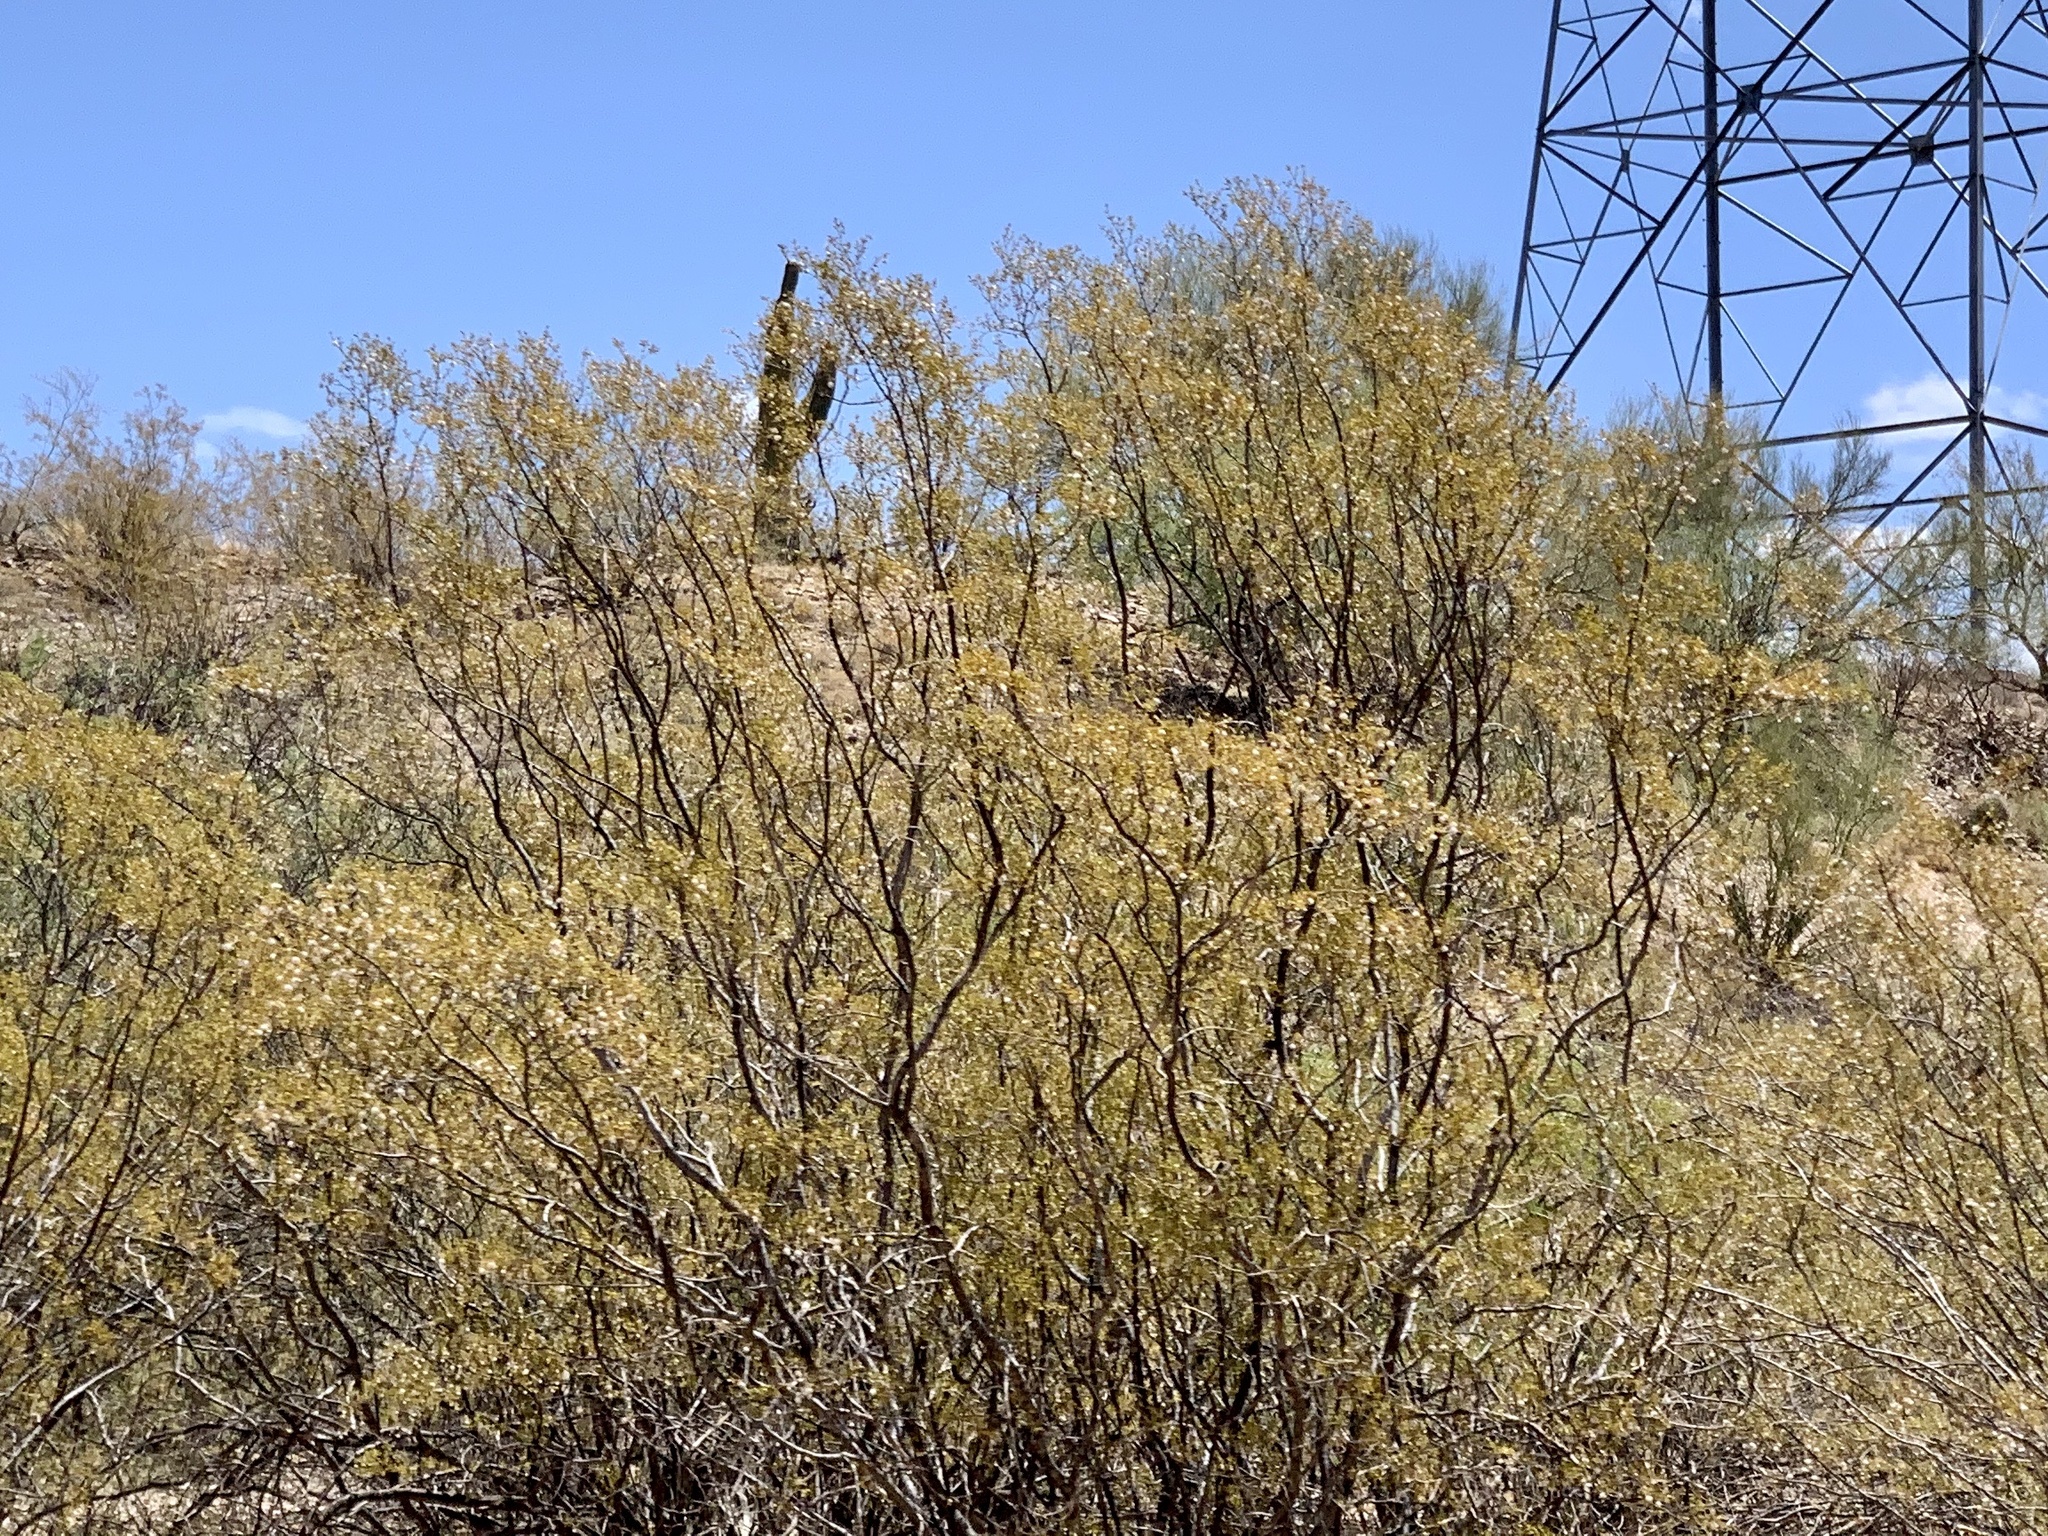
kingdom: Plantae
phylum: Tracheophyta
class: Magnoliopsida
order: Zygophyllales
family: Zygophyllaceae
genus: Larrea
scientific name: Larrea tridentata
